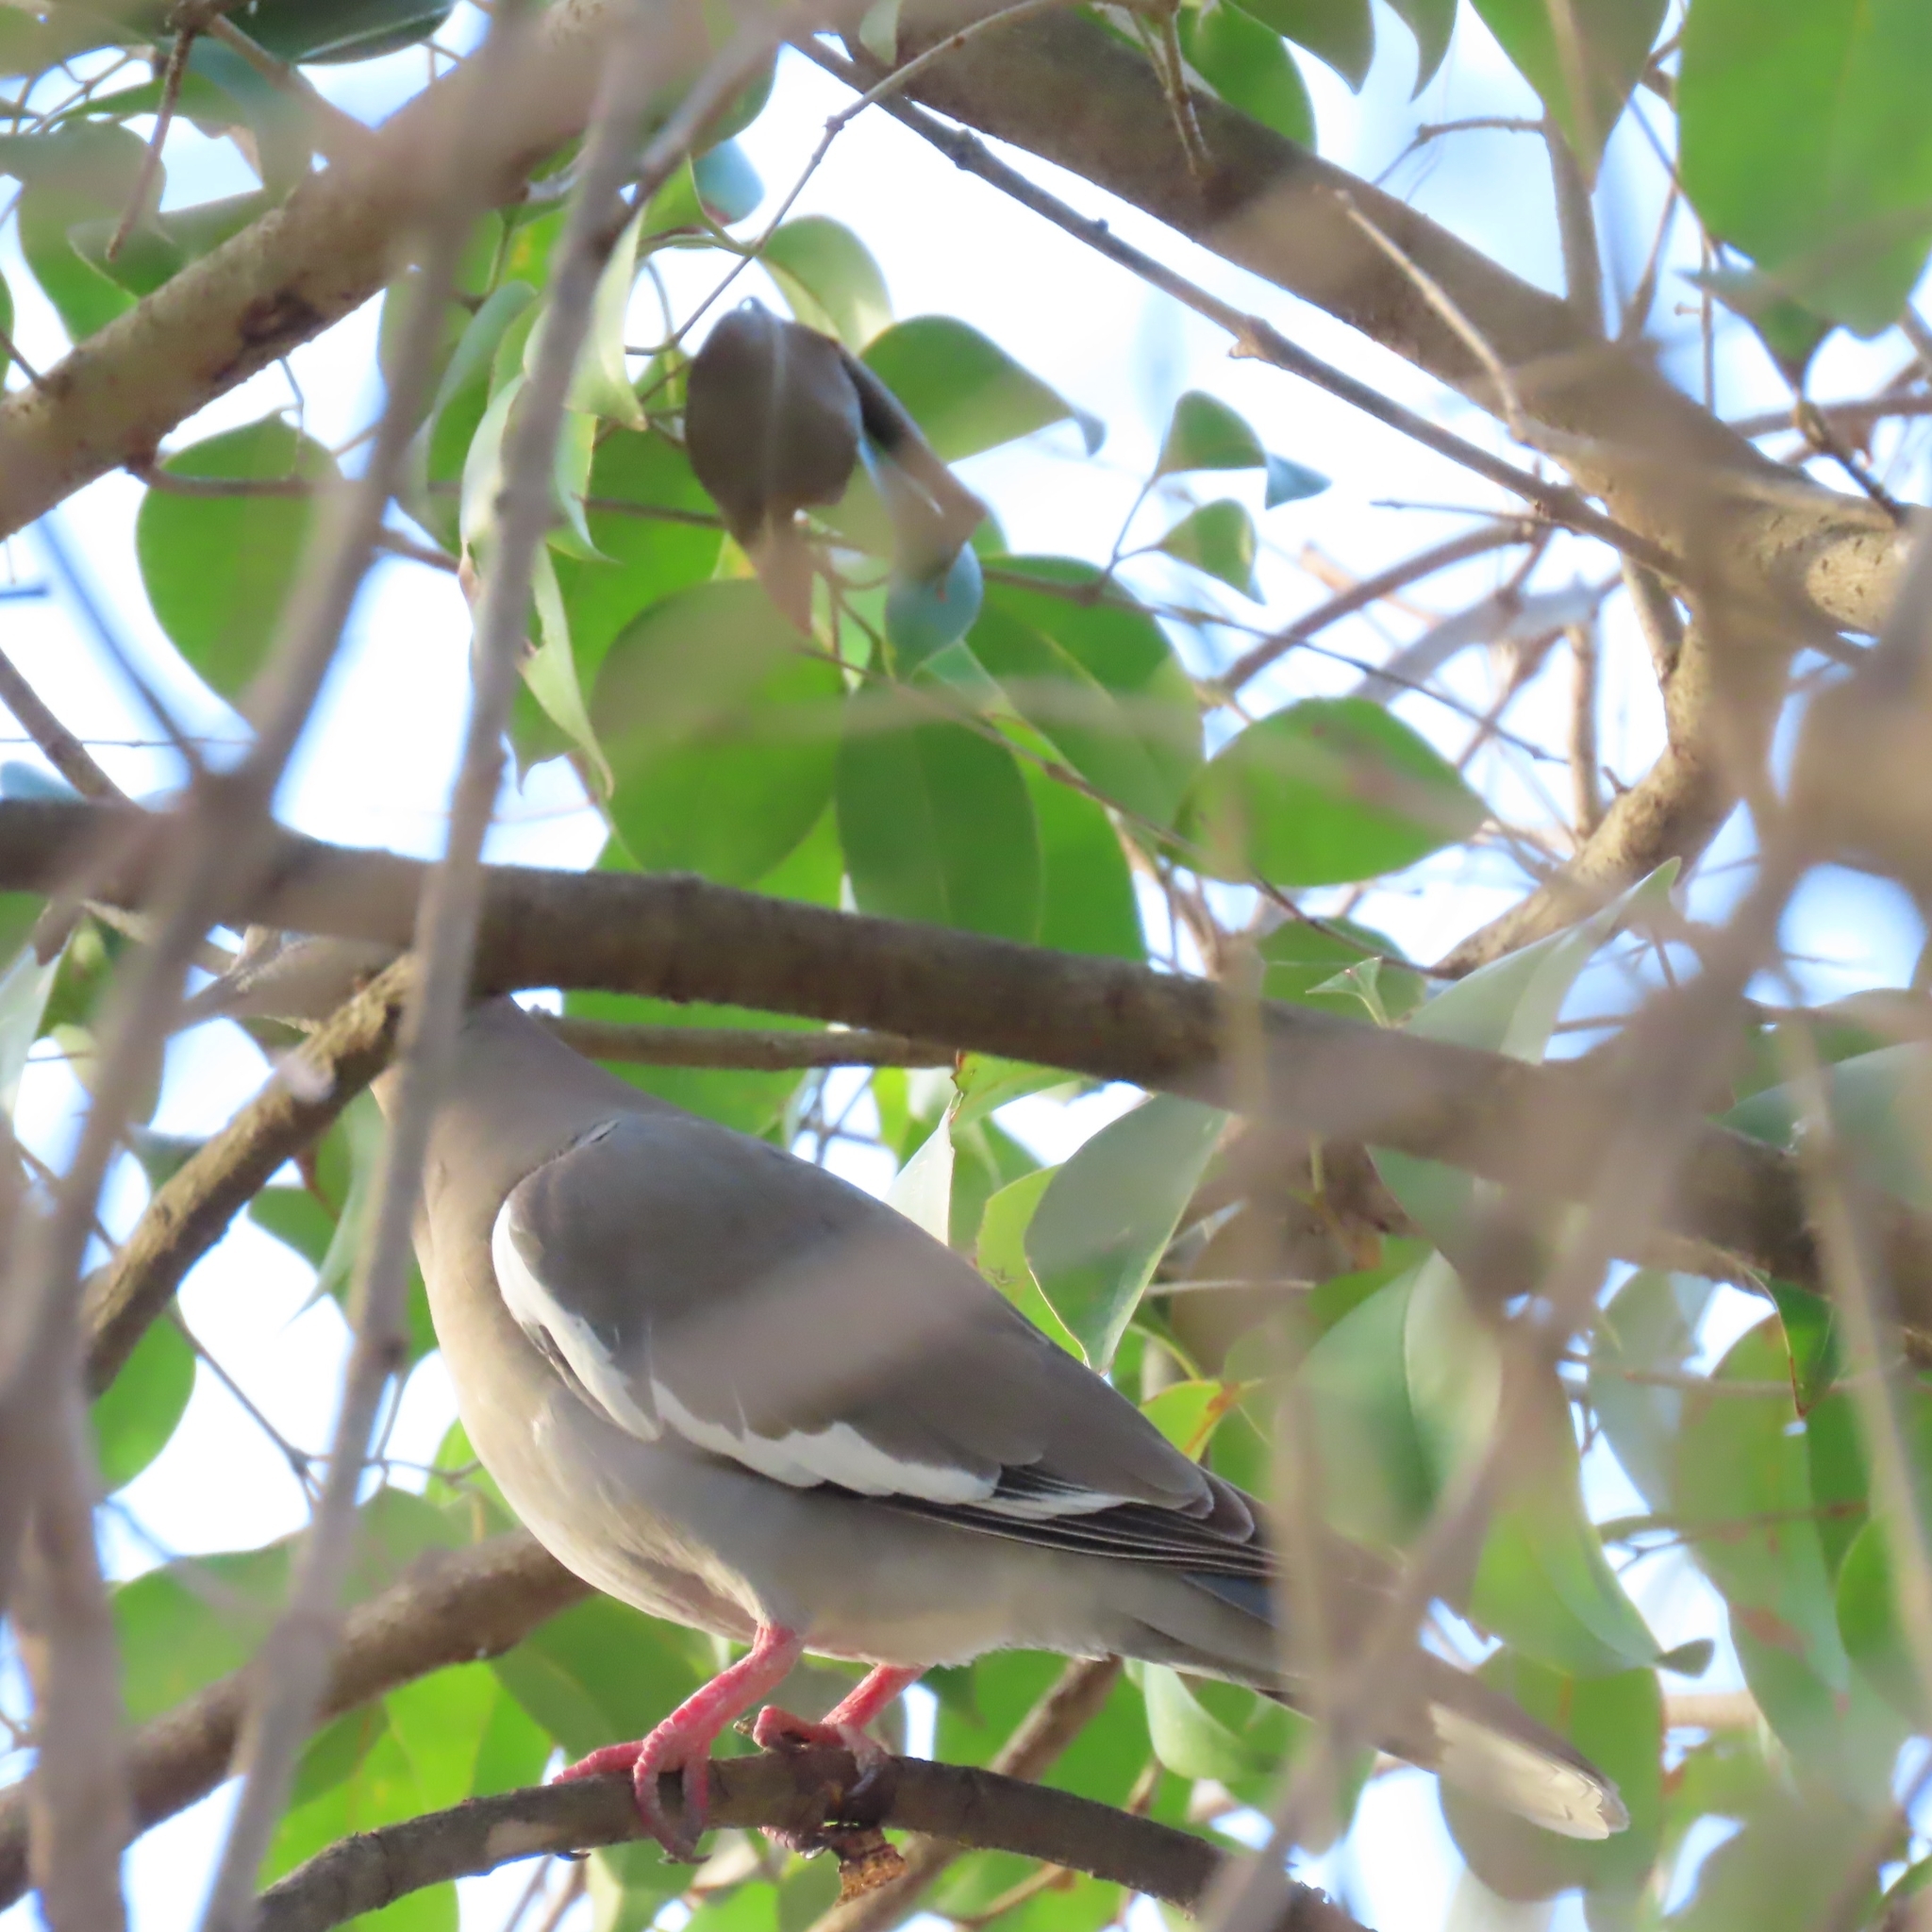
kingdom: Animalia
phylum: Chordata
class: Aves
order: Columbiformes
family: Columbidae
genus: Zenaida
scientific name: Zenaida asiatica
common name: White-winged dove
